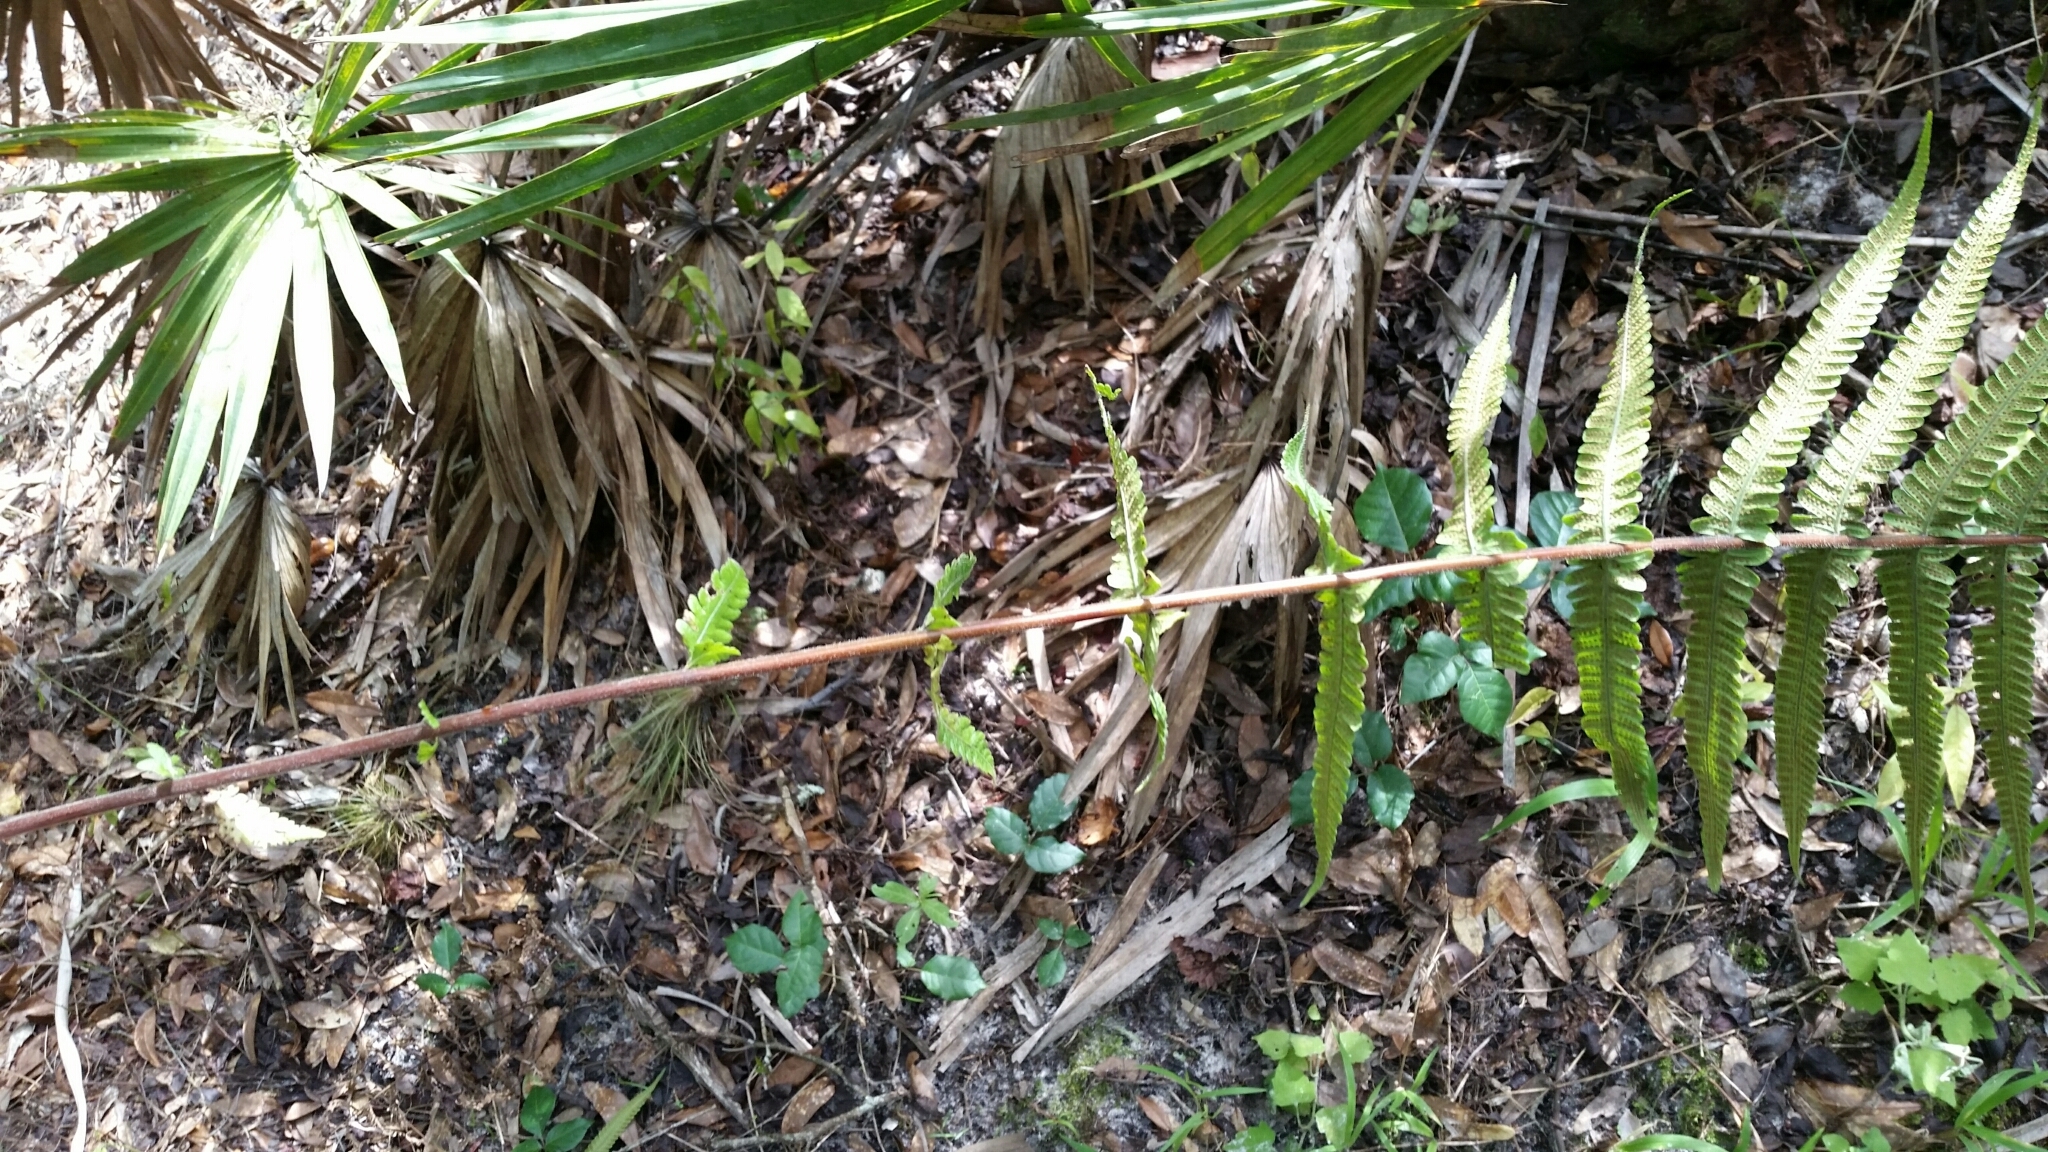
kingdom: Plantae
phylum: Tracheophyta
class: Polypodiopsida
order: Polypodiales
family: Thelypteridaceae
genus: Christella
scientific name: Christella dentata
